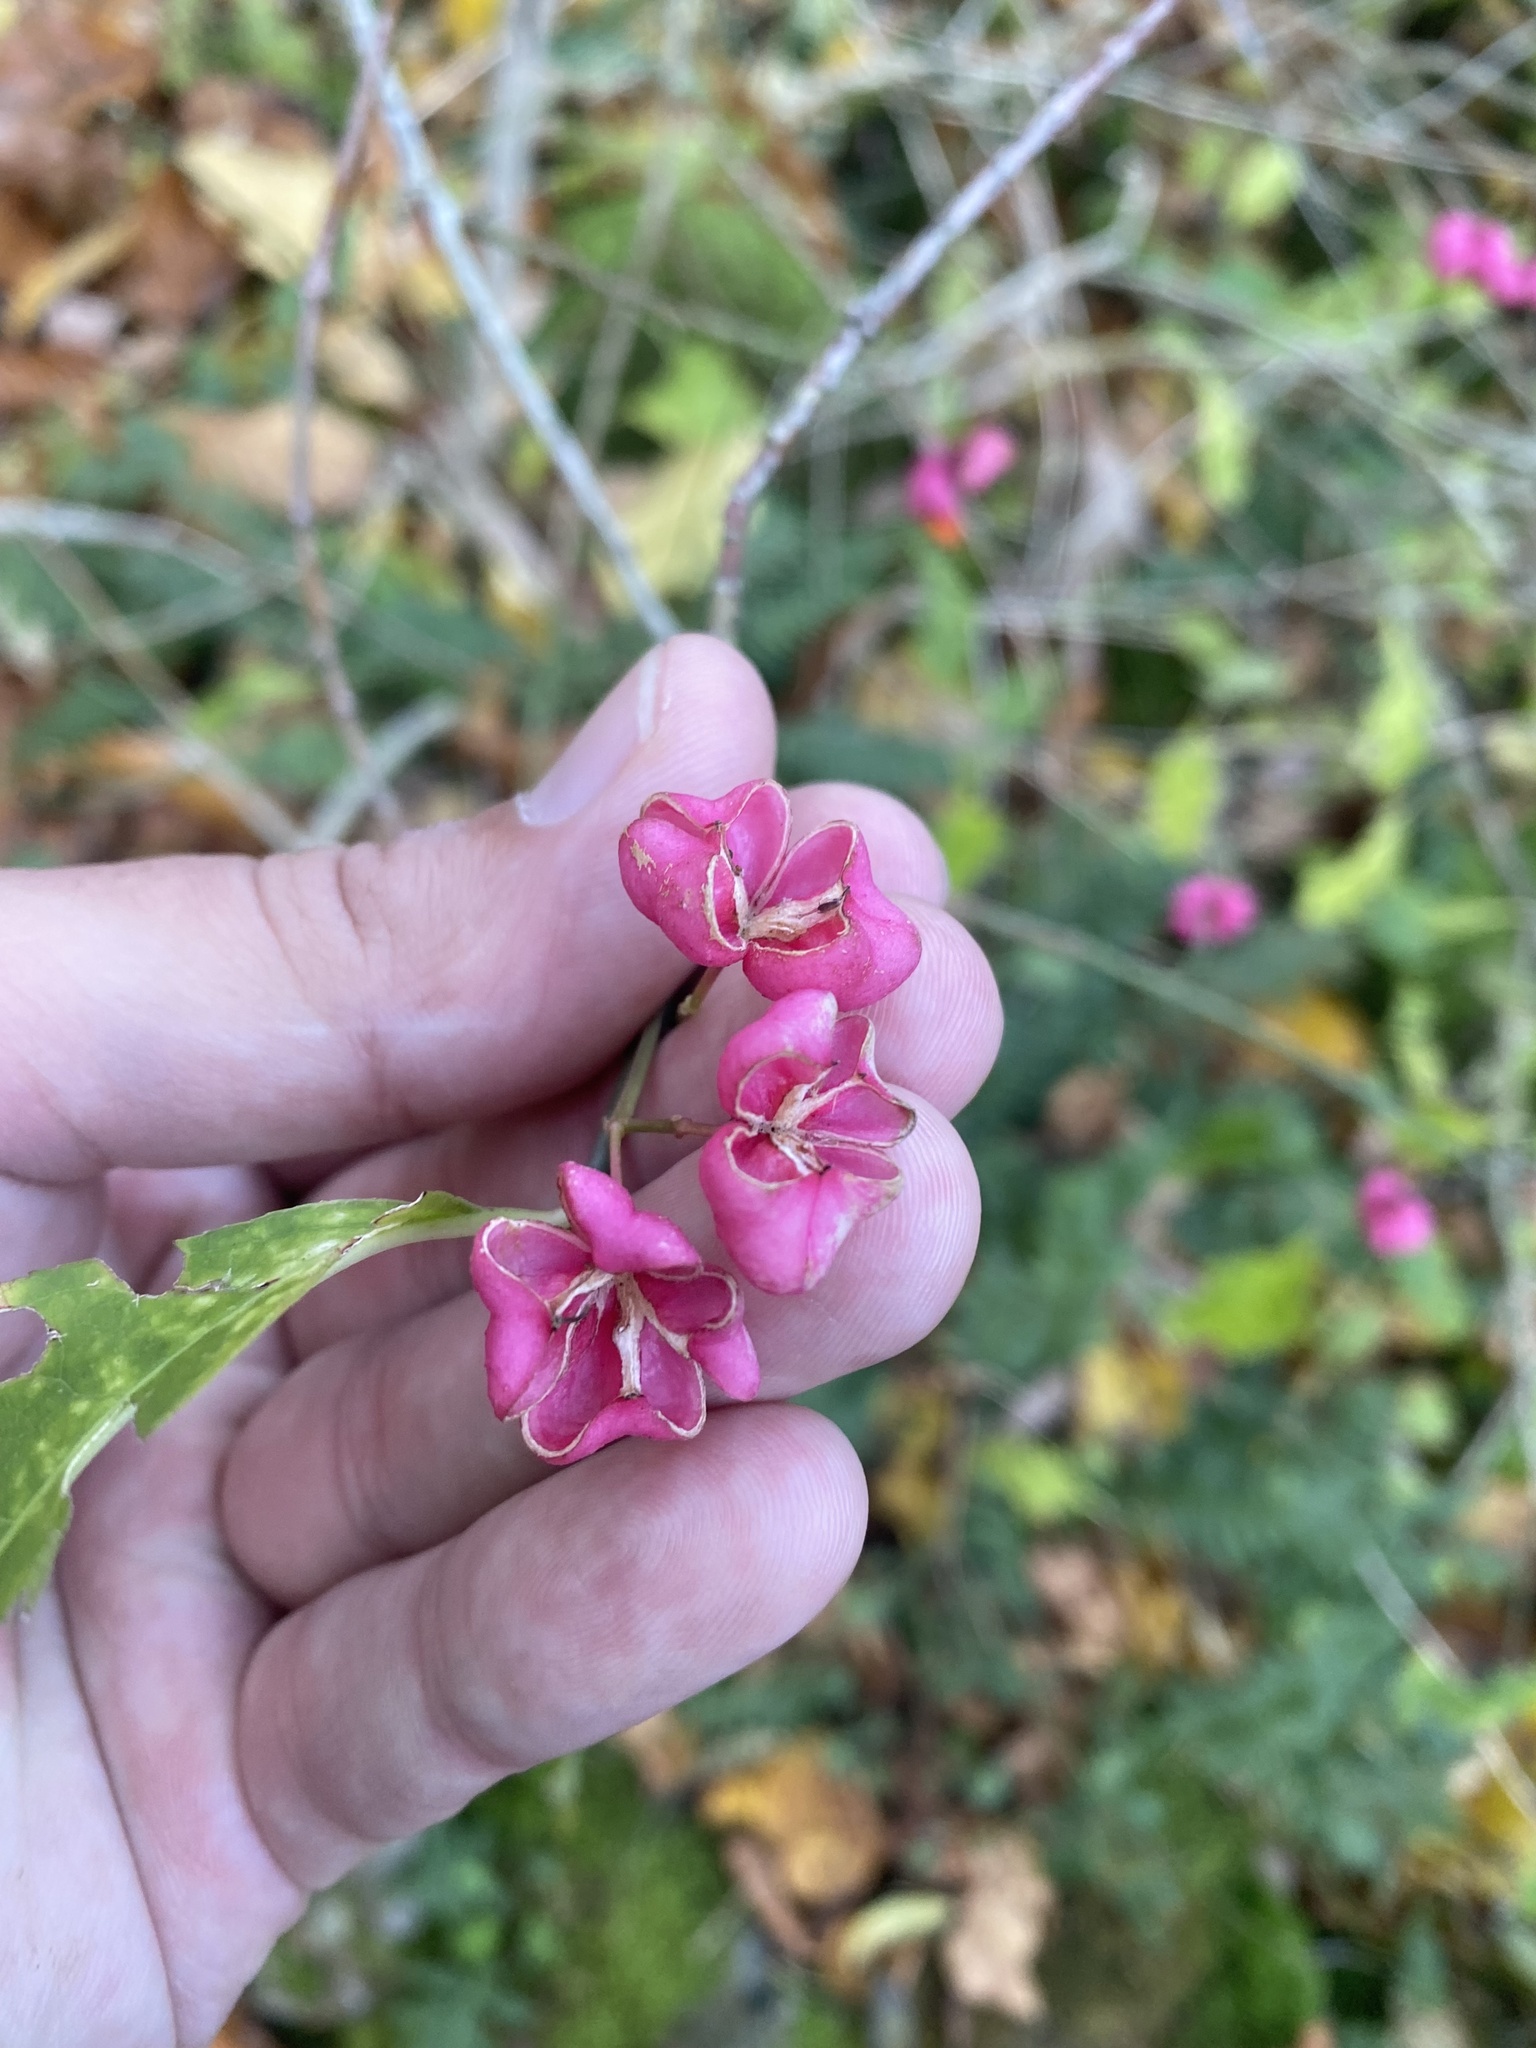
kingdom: Plantae
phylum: Tracheophyta
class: Magnoliopsida
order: Celastrales
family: Celastraceae
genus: Euonymus
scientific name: Euonymus europaeus
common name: Spindle
